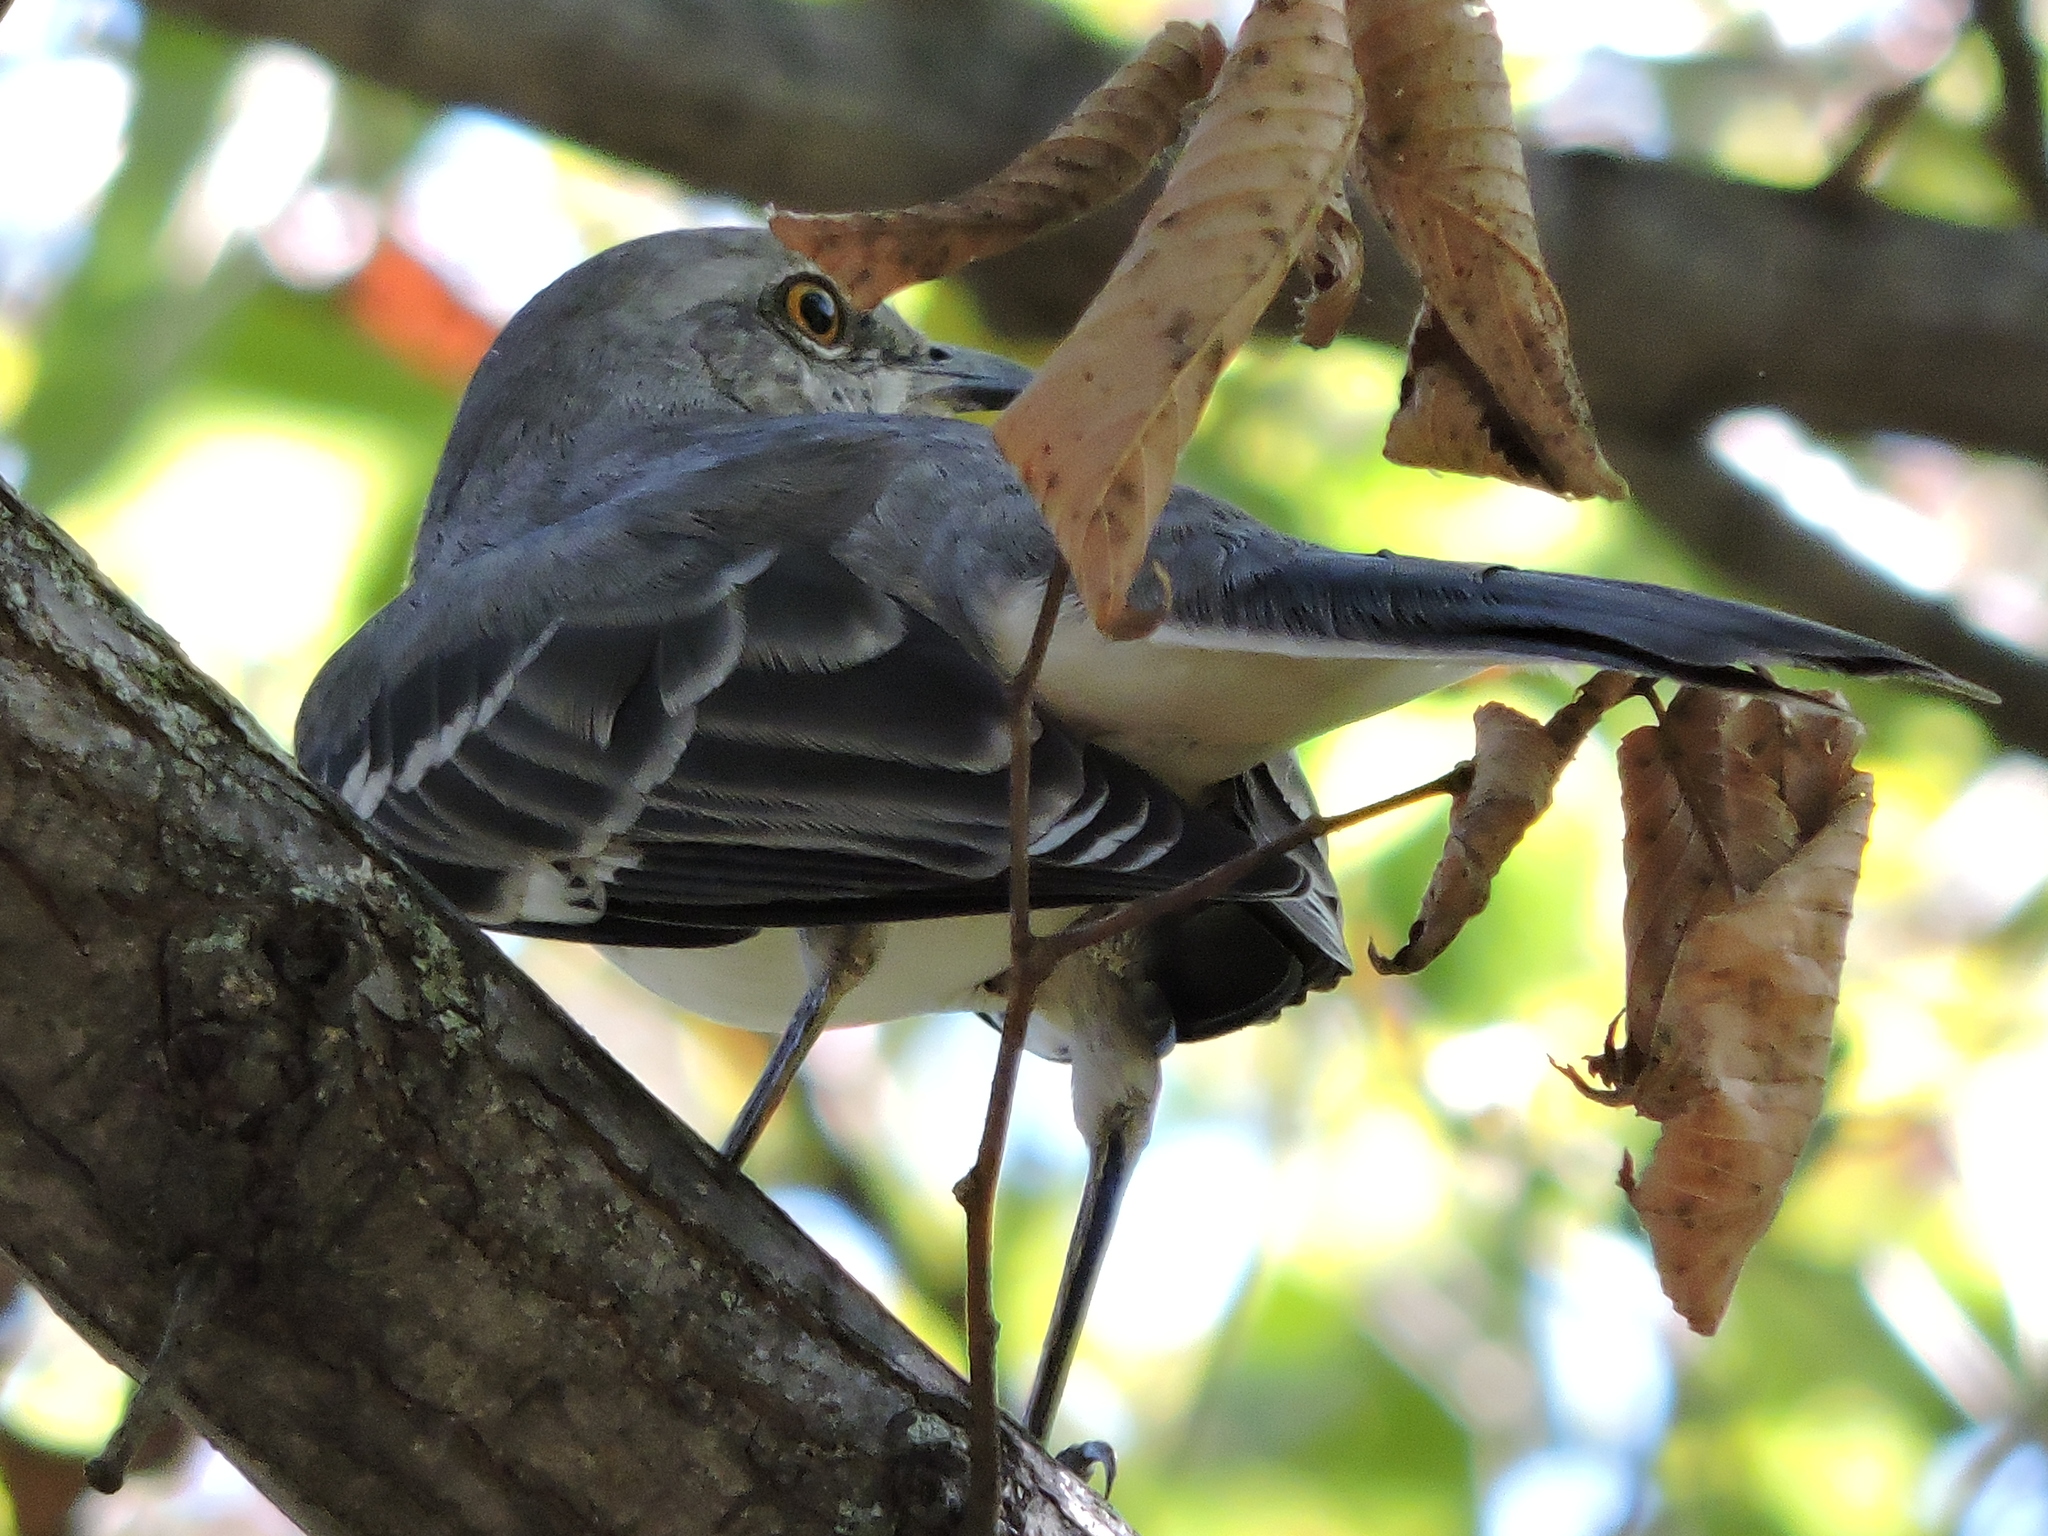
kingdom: Animalia
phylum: Chordata
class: Aves
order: Passeriformes
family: Mimidae
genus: Mimus
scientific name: Mimus polyglottos
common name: Northern mockingbird
